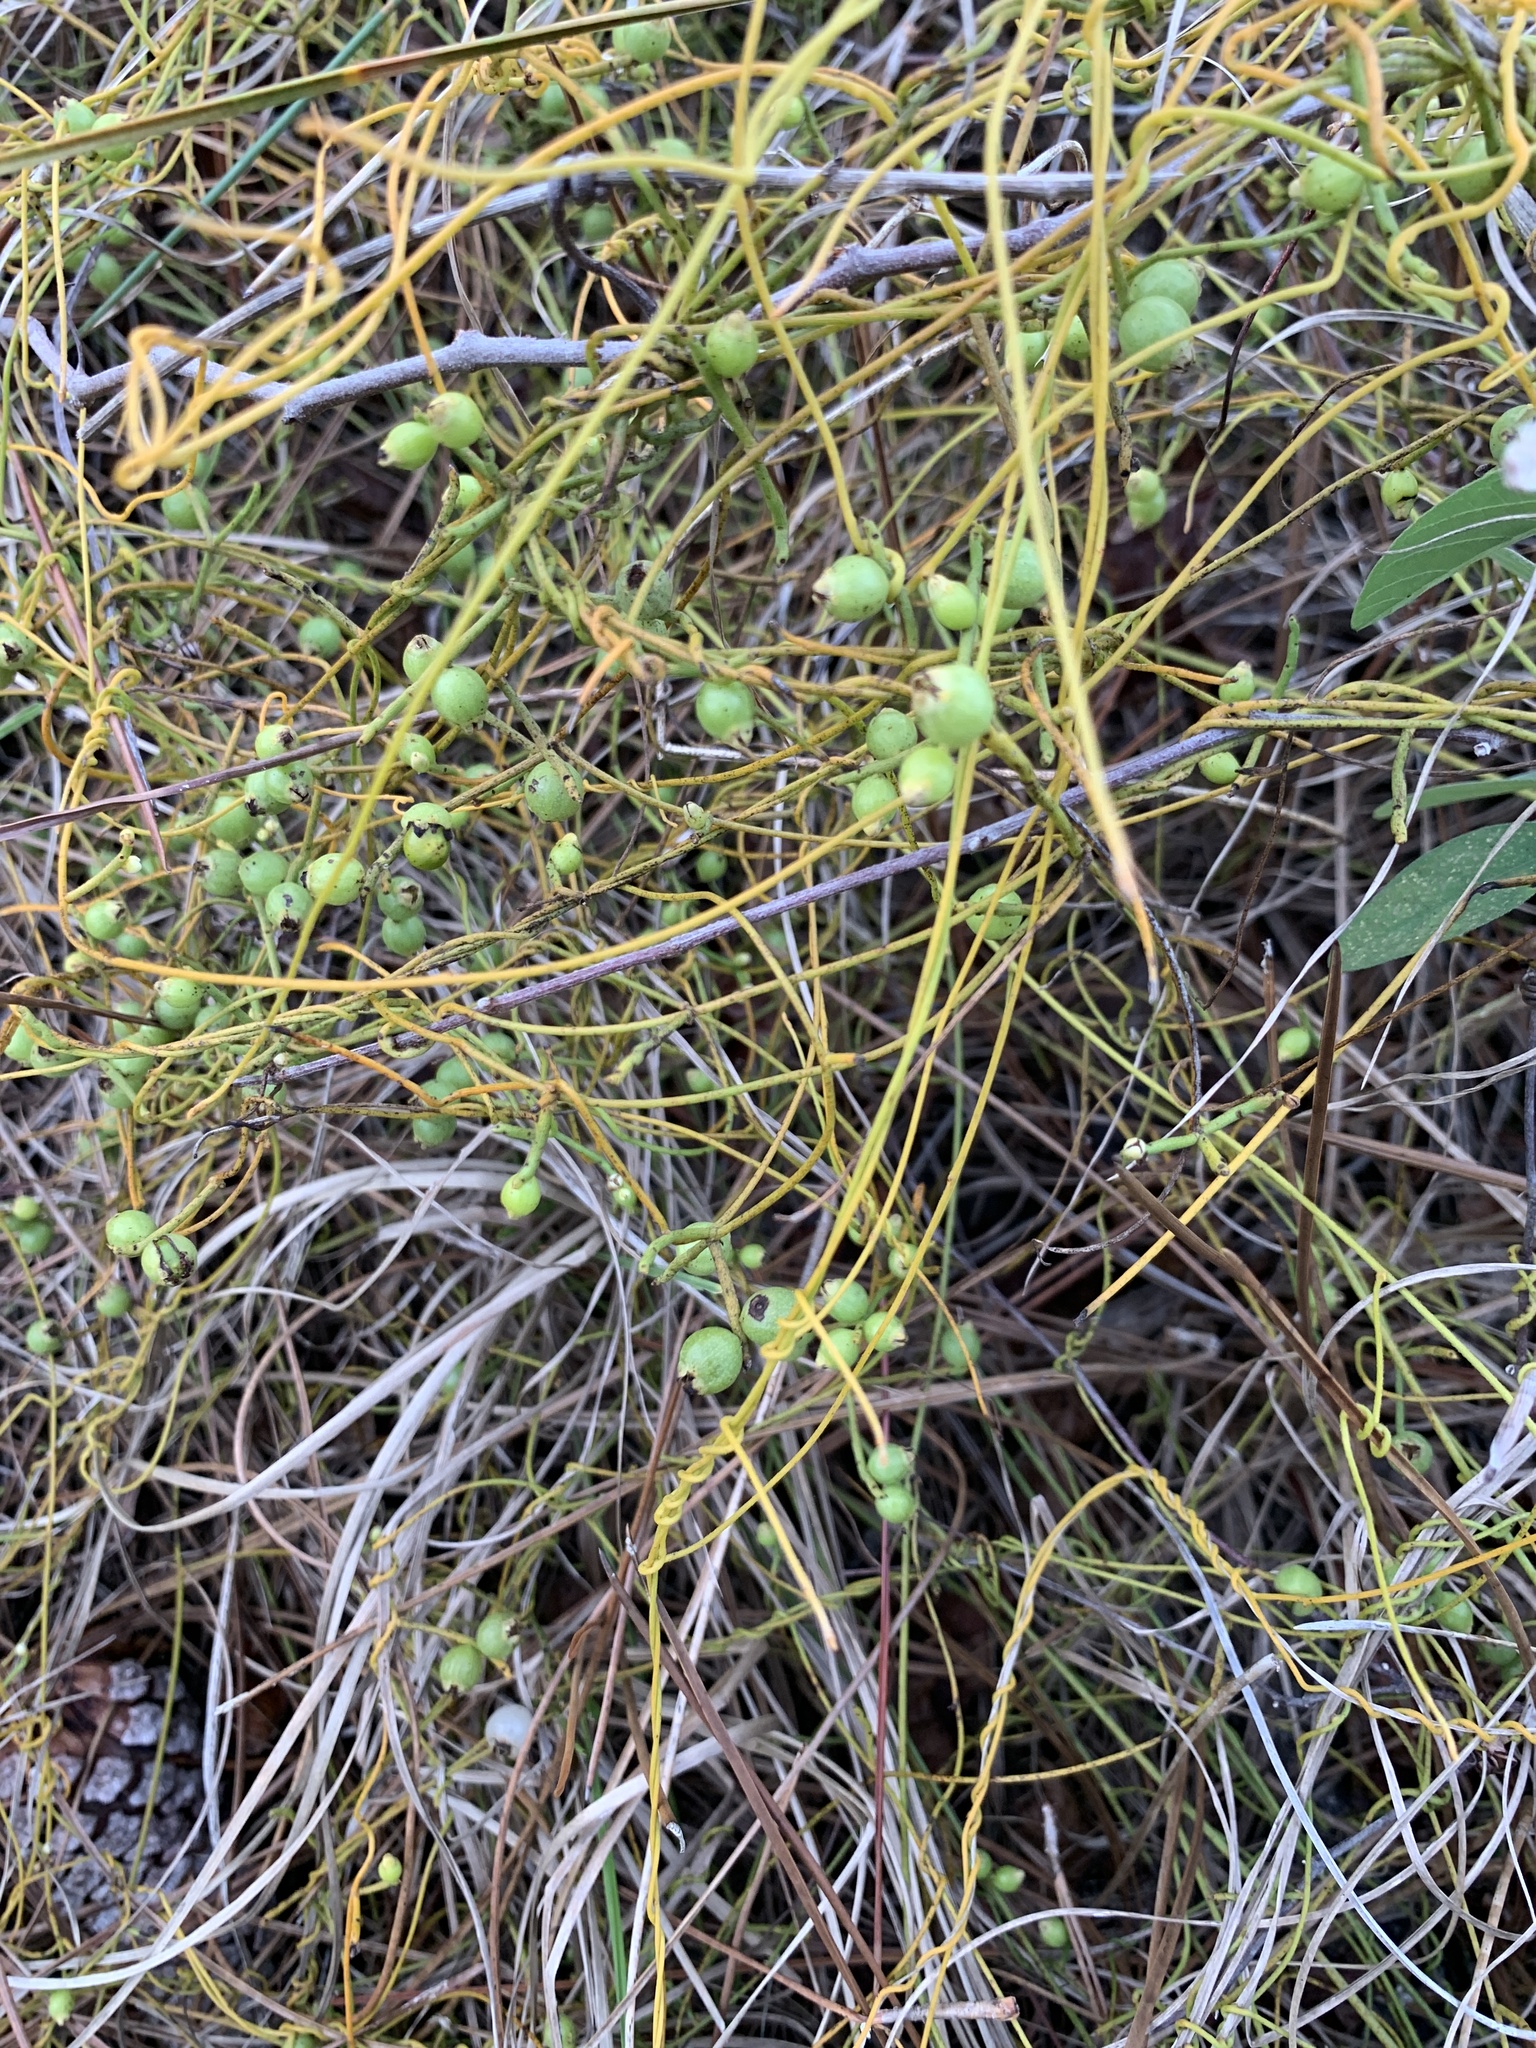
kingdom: Plantae
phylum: Tracheophyta
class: Magnoliopsida
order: Laurales
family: Lauraceae
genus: Cassytha
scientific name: Cassytha filiformis
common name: Dodder-laurel
